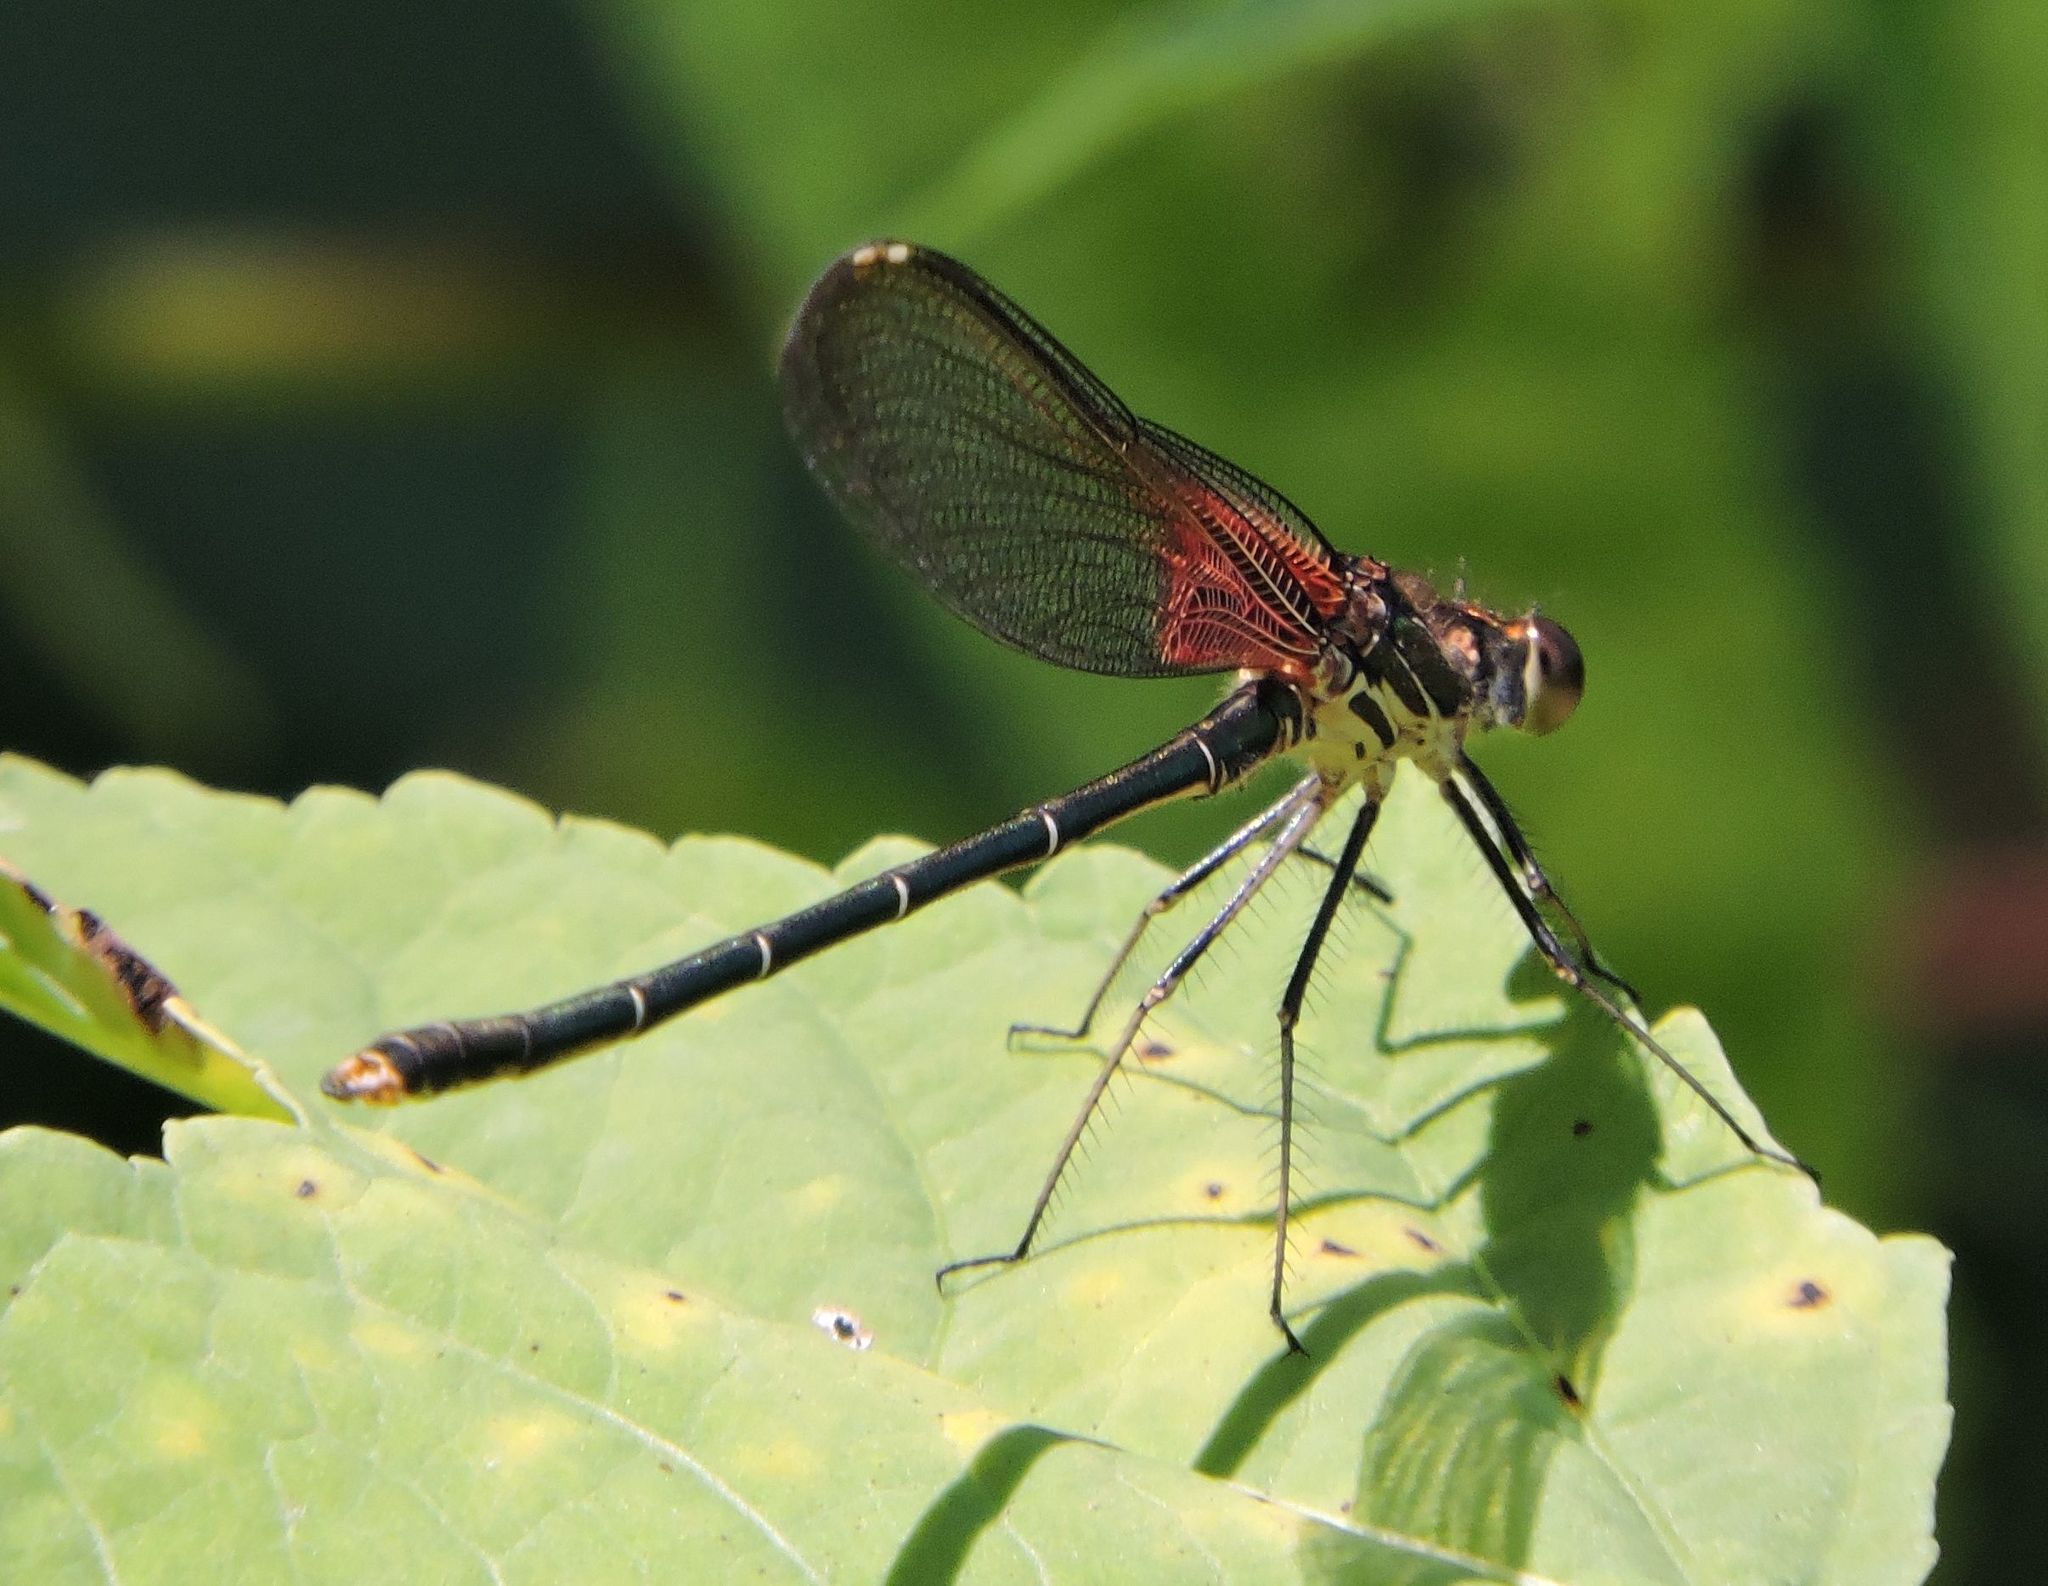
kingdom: Animalia
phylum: Arthropoda
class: Insecta
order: Odonata
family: Calopterygidae
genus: Hetaerina
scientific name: Hetaerina americana
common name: American rubyspot
